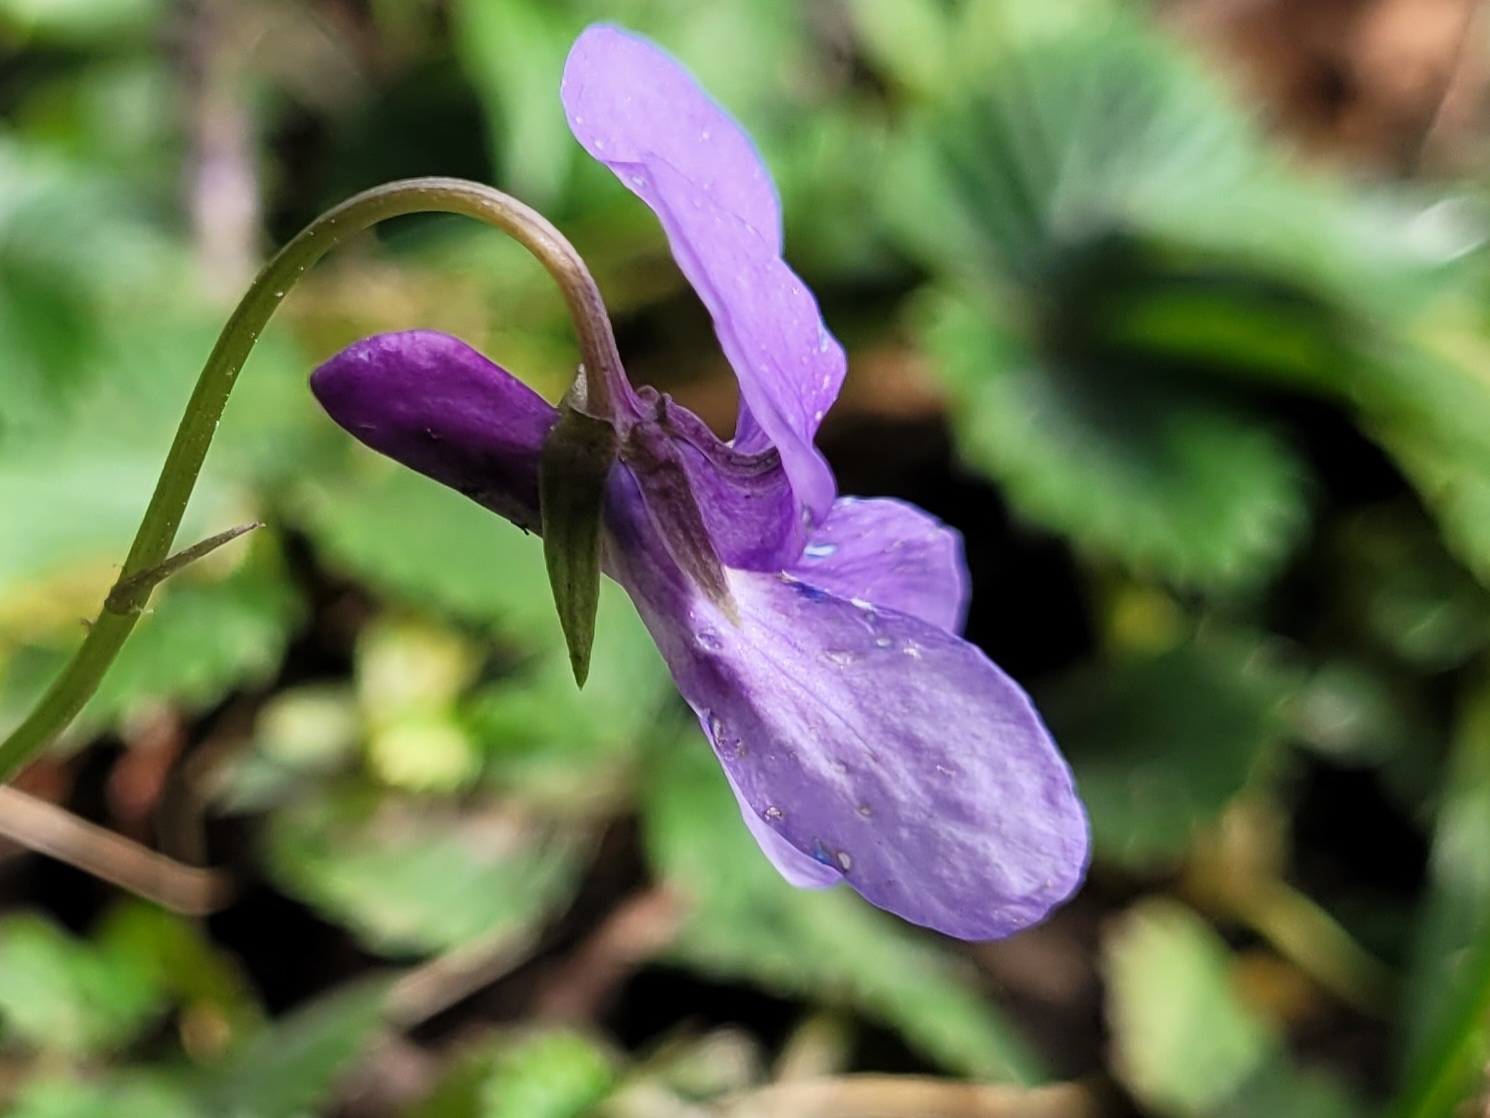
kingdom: Plantae
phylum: Tracheophyta
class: Magnoliopsida
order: Malpighiales
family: Violaceae
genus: Viola
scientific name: Viola reichenbachiana
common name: Early dog-violet
